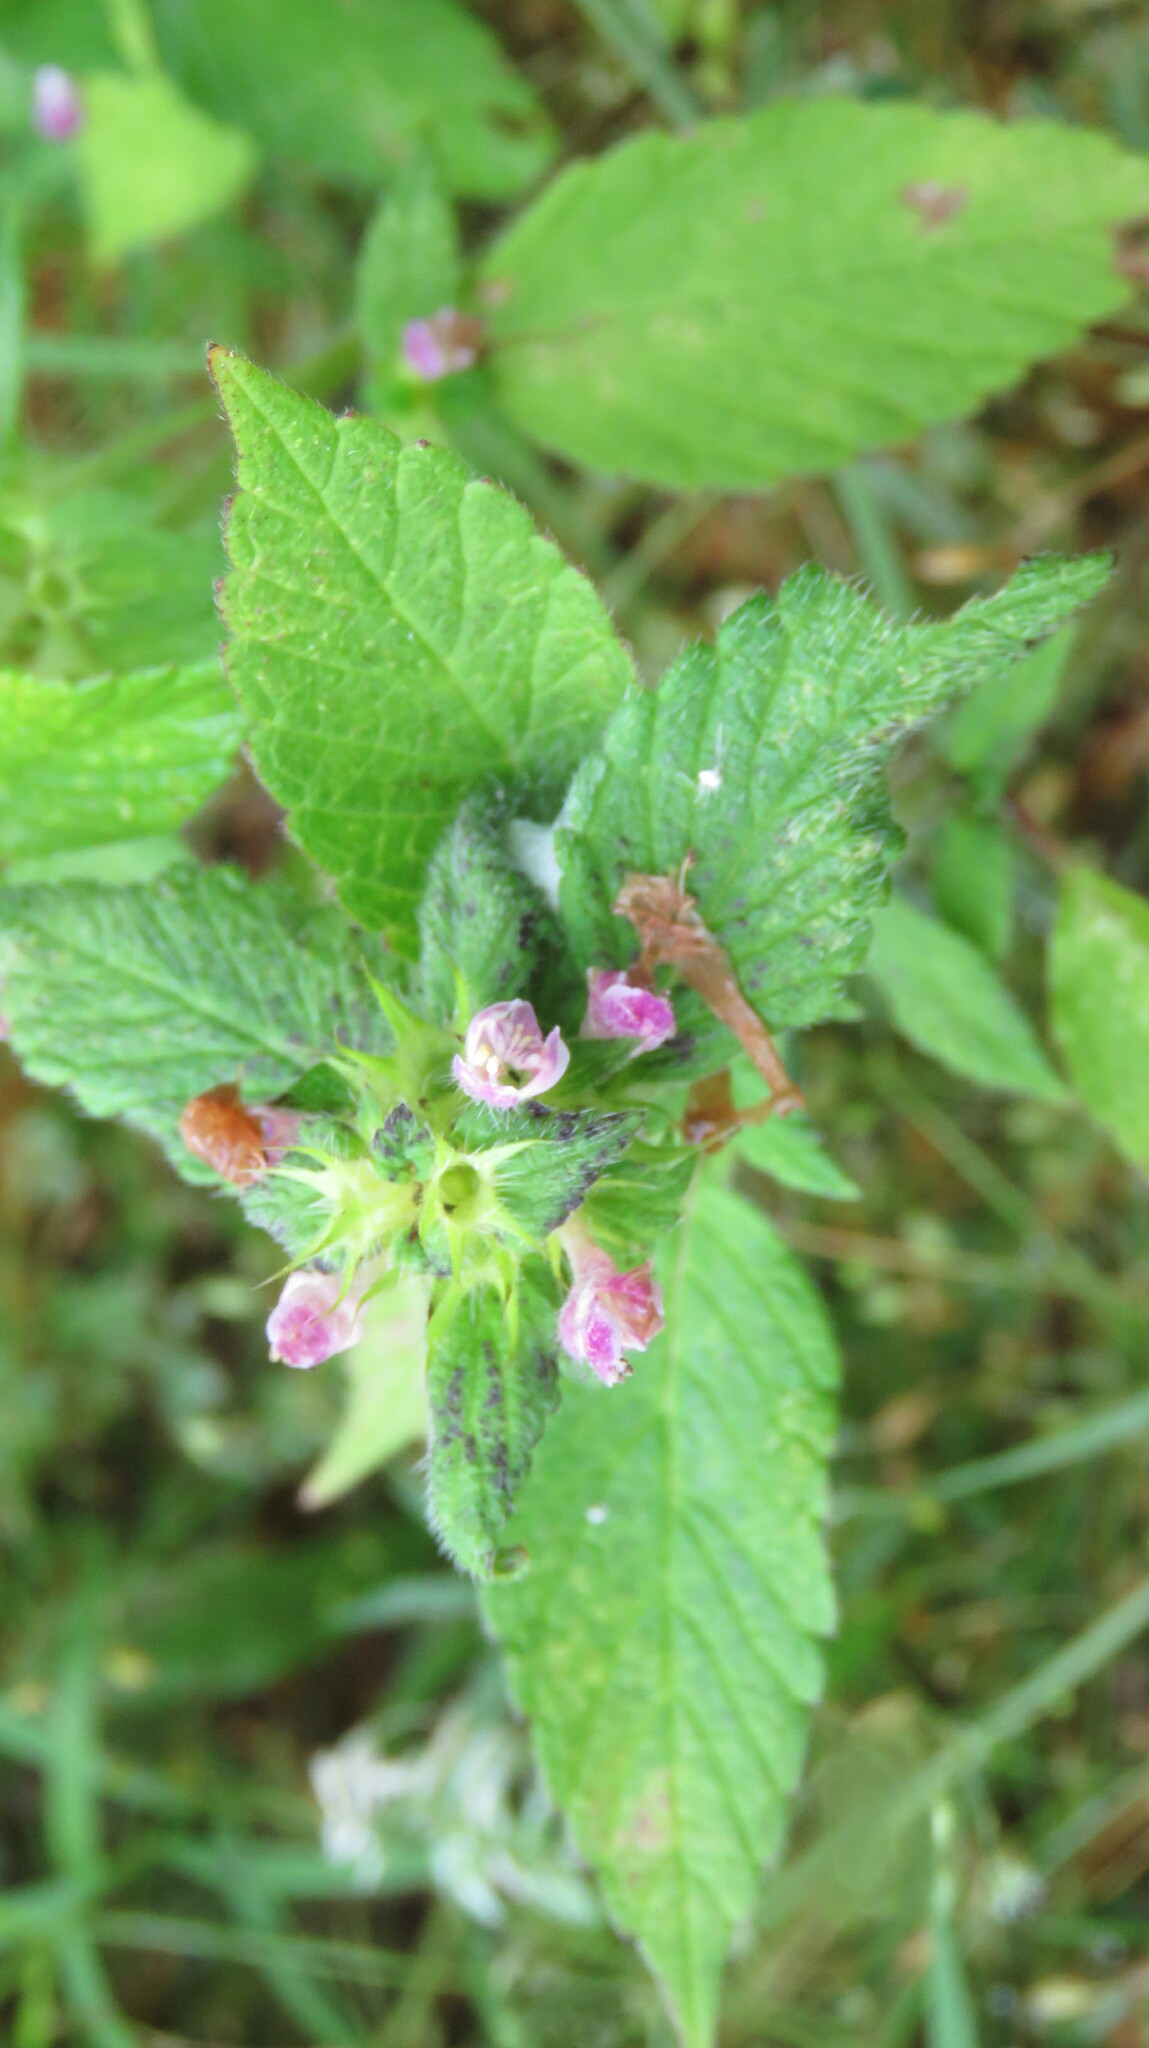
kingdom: Plantae
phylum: Tracheophyta
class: Magnoliopsida
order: Lamiales
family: Lamiaceae
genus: Galeopsis
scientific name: Galeopsis tetrahit
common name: Common hemp-nettle
